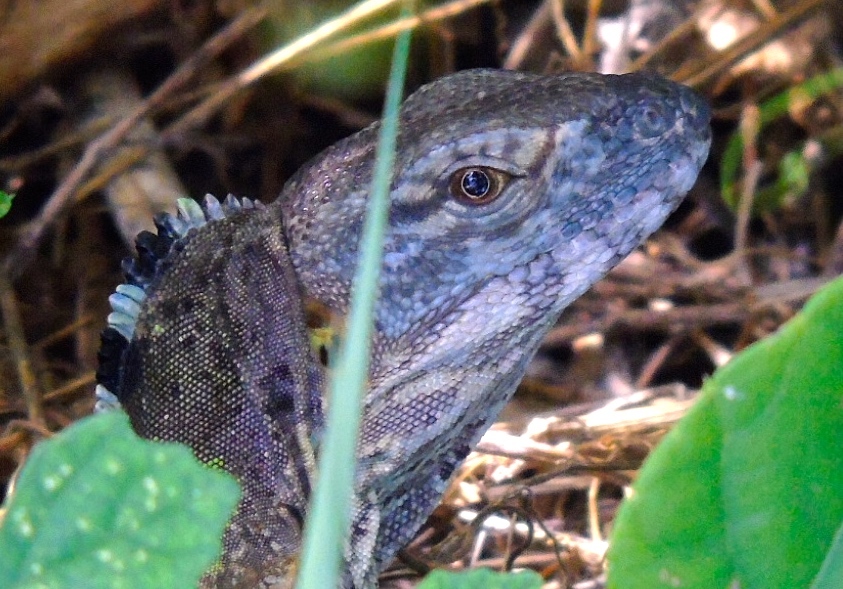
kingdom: Animalia
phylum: Chordata
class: Squamata
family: Iguanidae
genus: Ctenosaura
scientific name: Ctenosaura pectinata
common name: Guerreran spiny-tailed iguana
